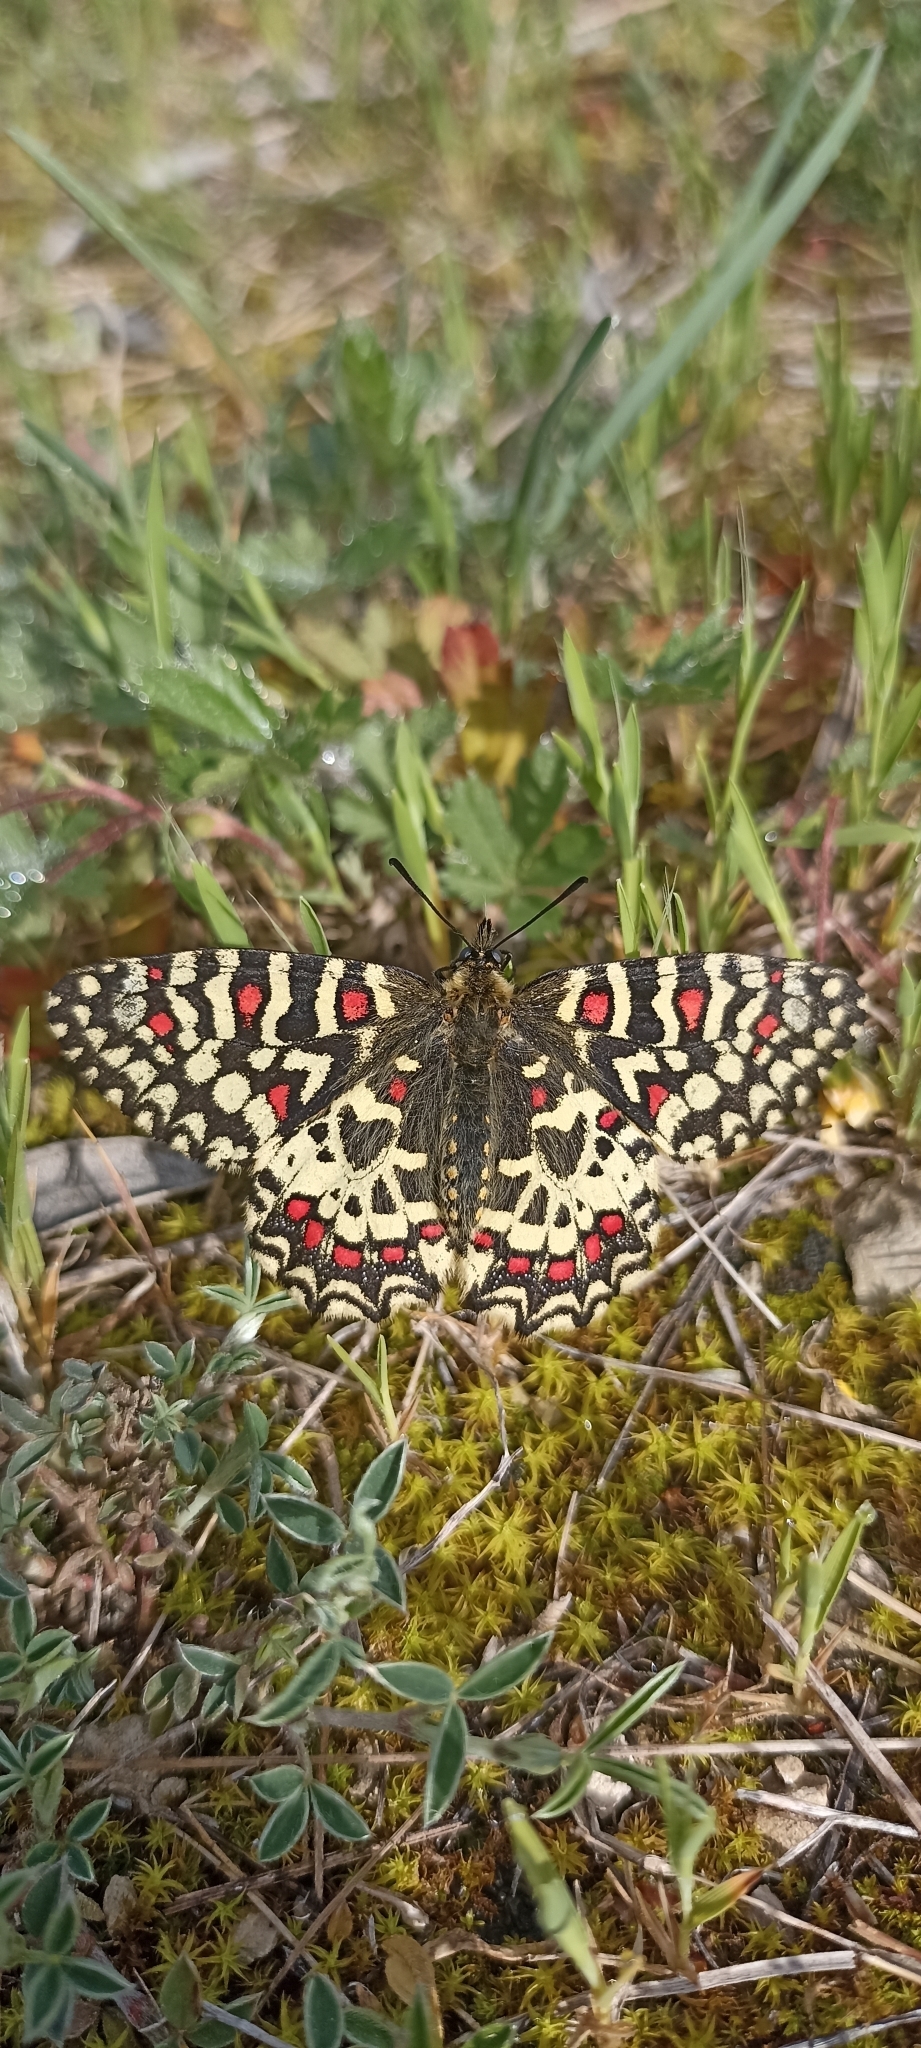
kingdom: Animalia
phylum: Arthropoda
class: Insecta
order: Lepidoptera
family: Papilionidae
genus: Zerynthia
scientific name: Zerynthia rumina
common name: Spanish festoon
